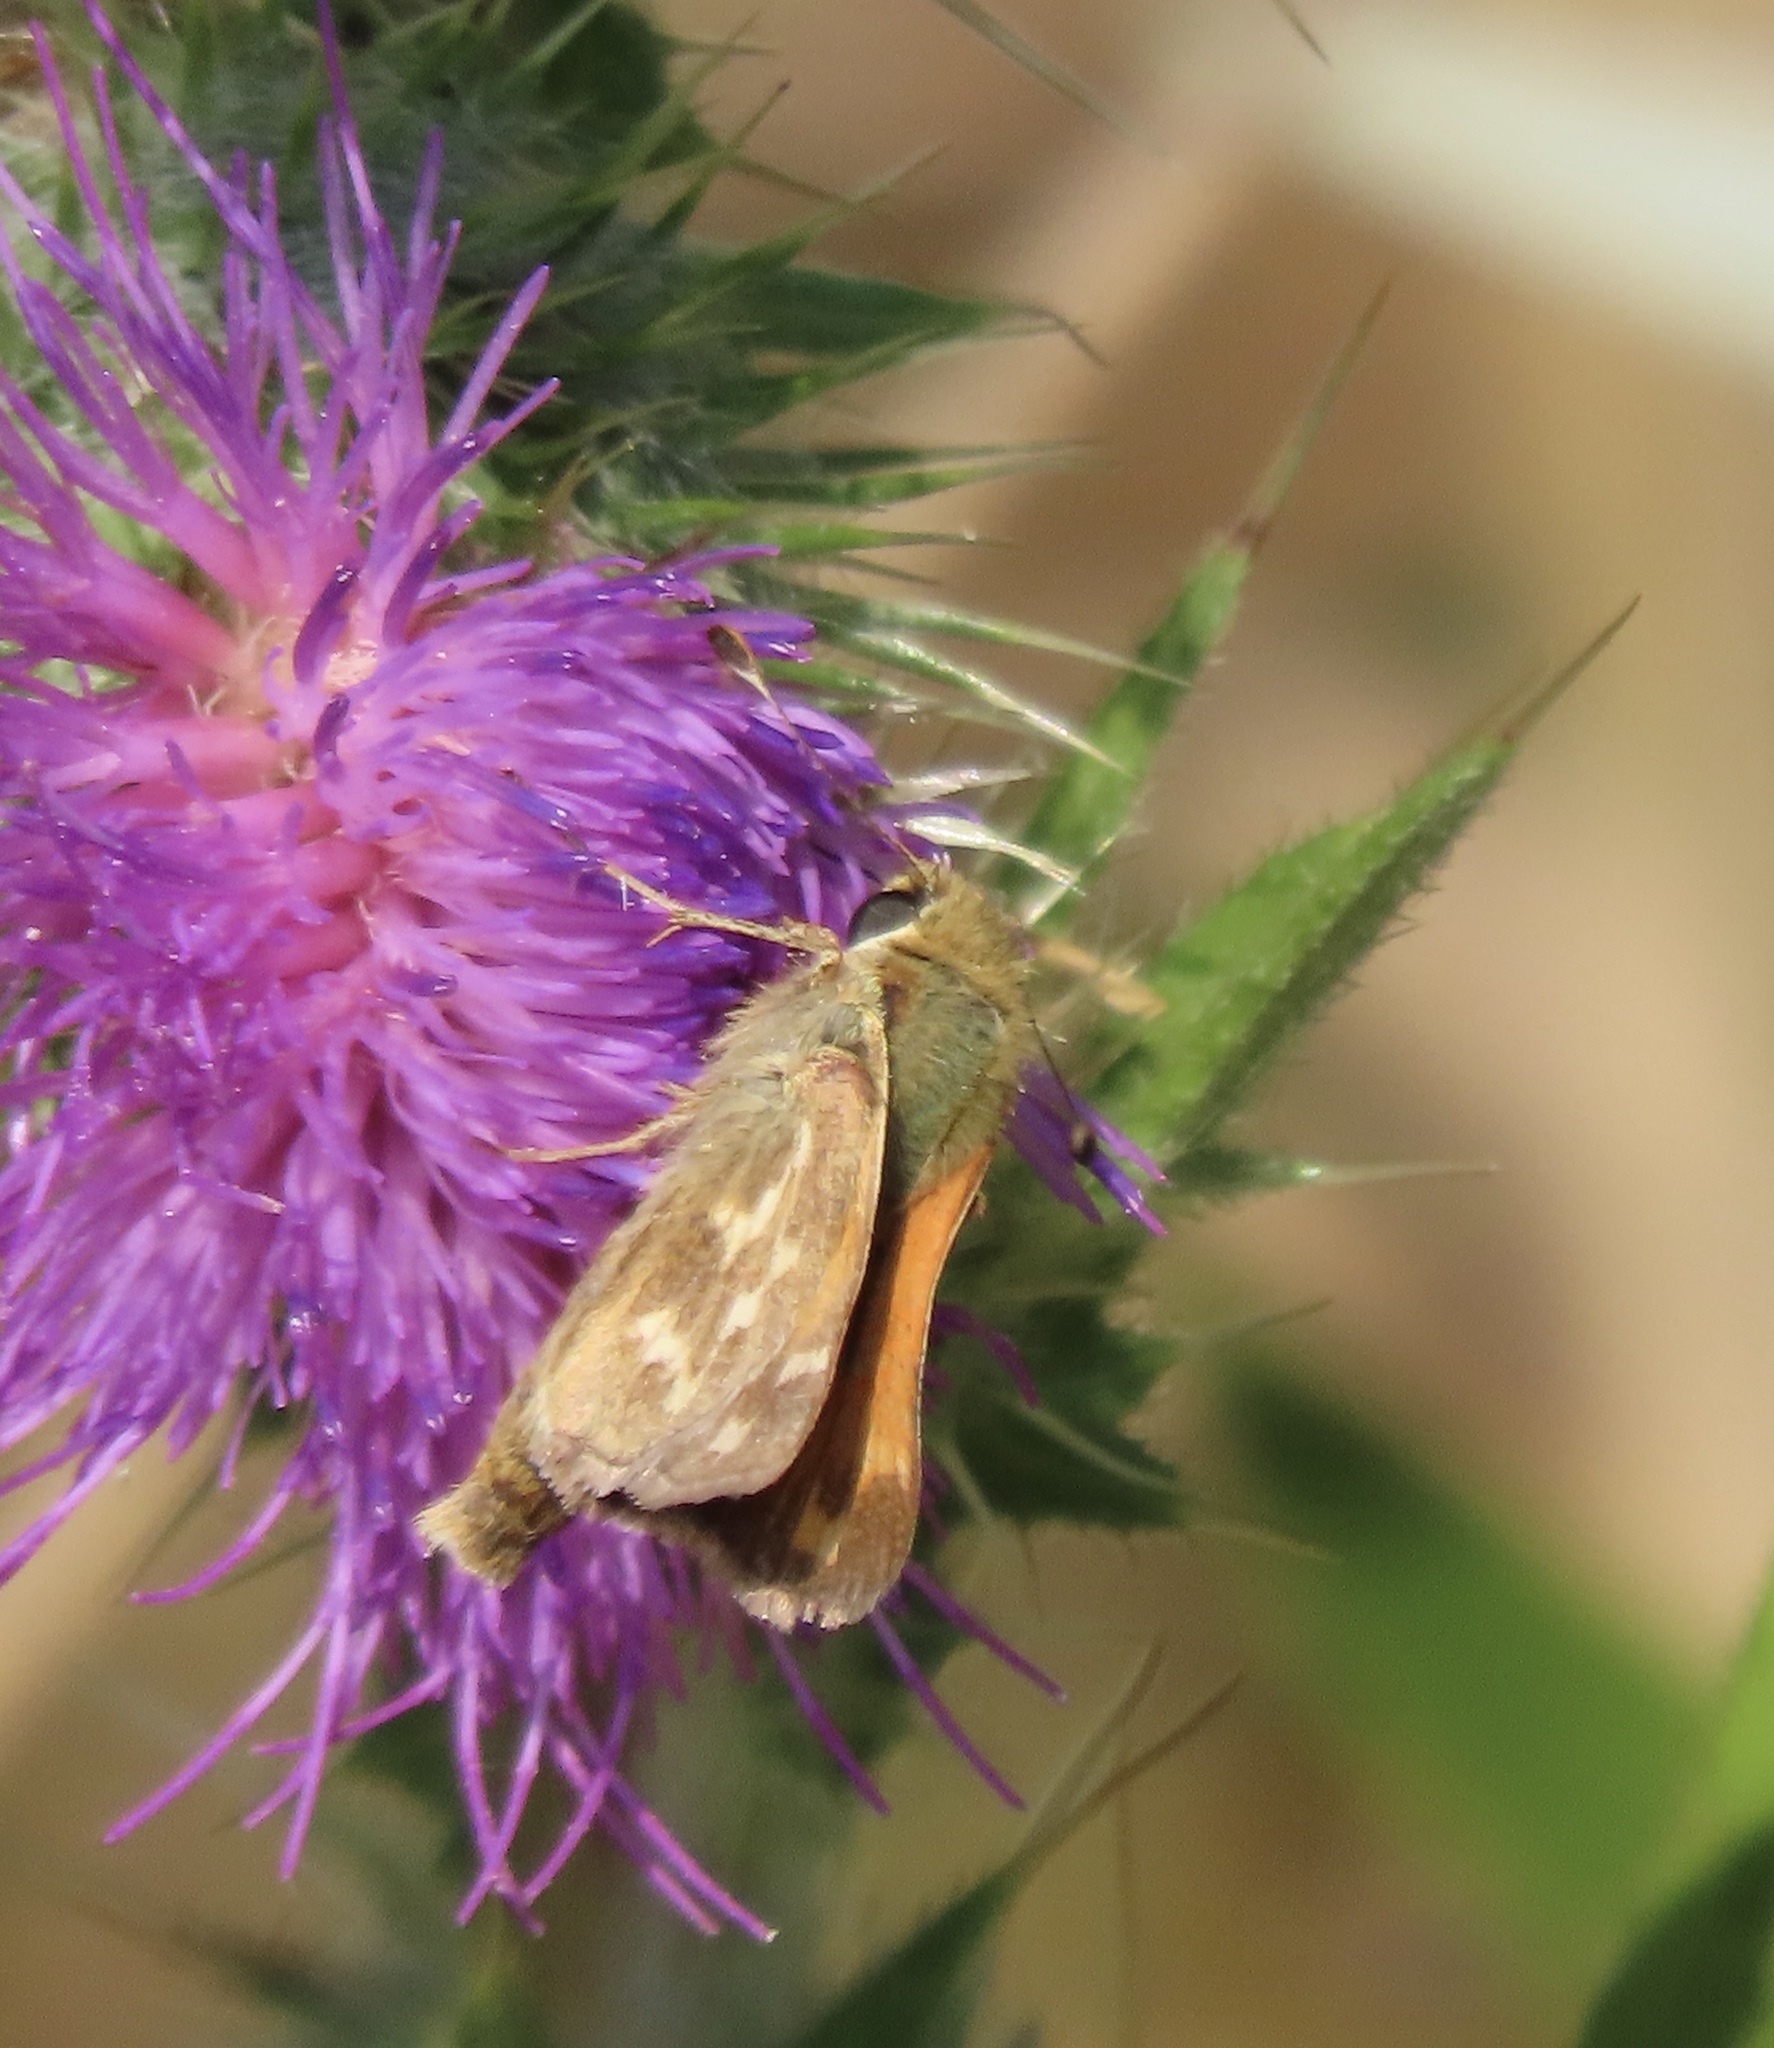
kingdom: Animalia
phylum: Arthropoda
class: Insecta
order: Lepidoptera
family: Hesperiidae
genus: Hesperia
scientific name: Hesperia harpalus
